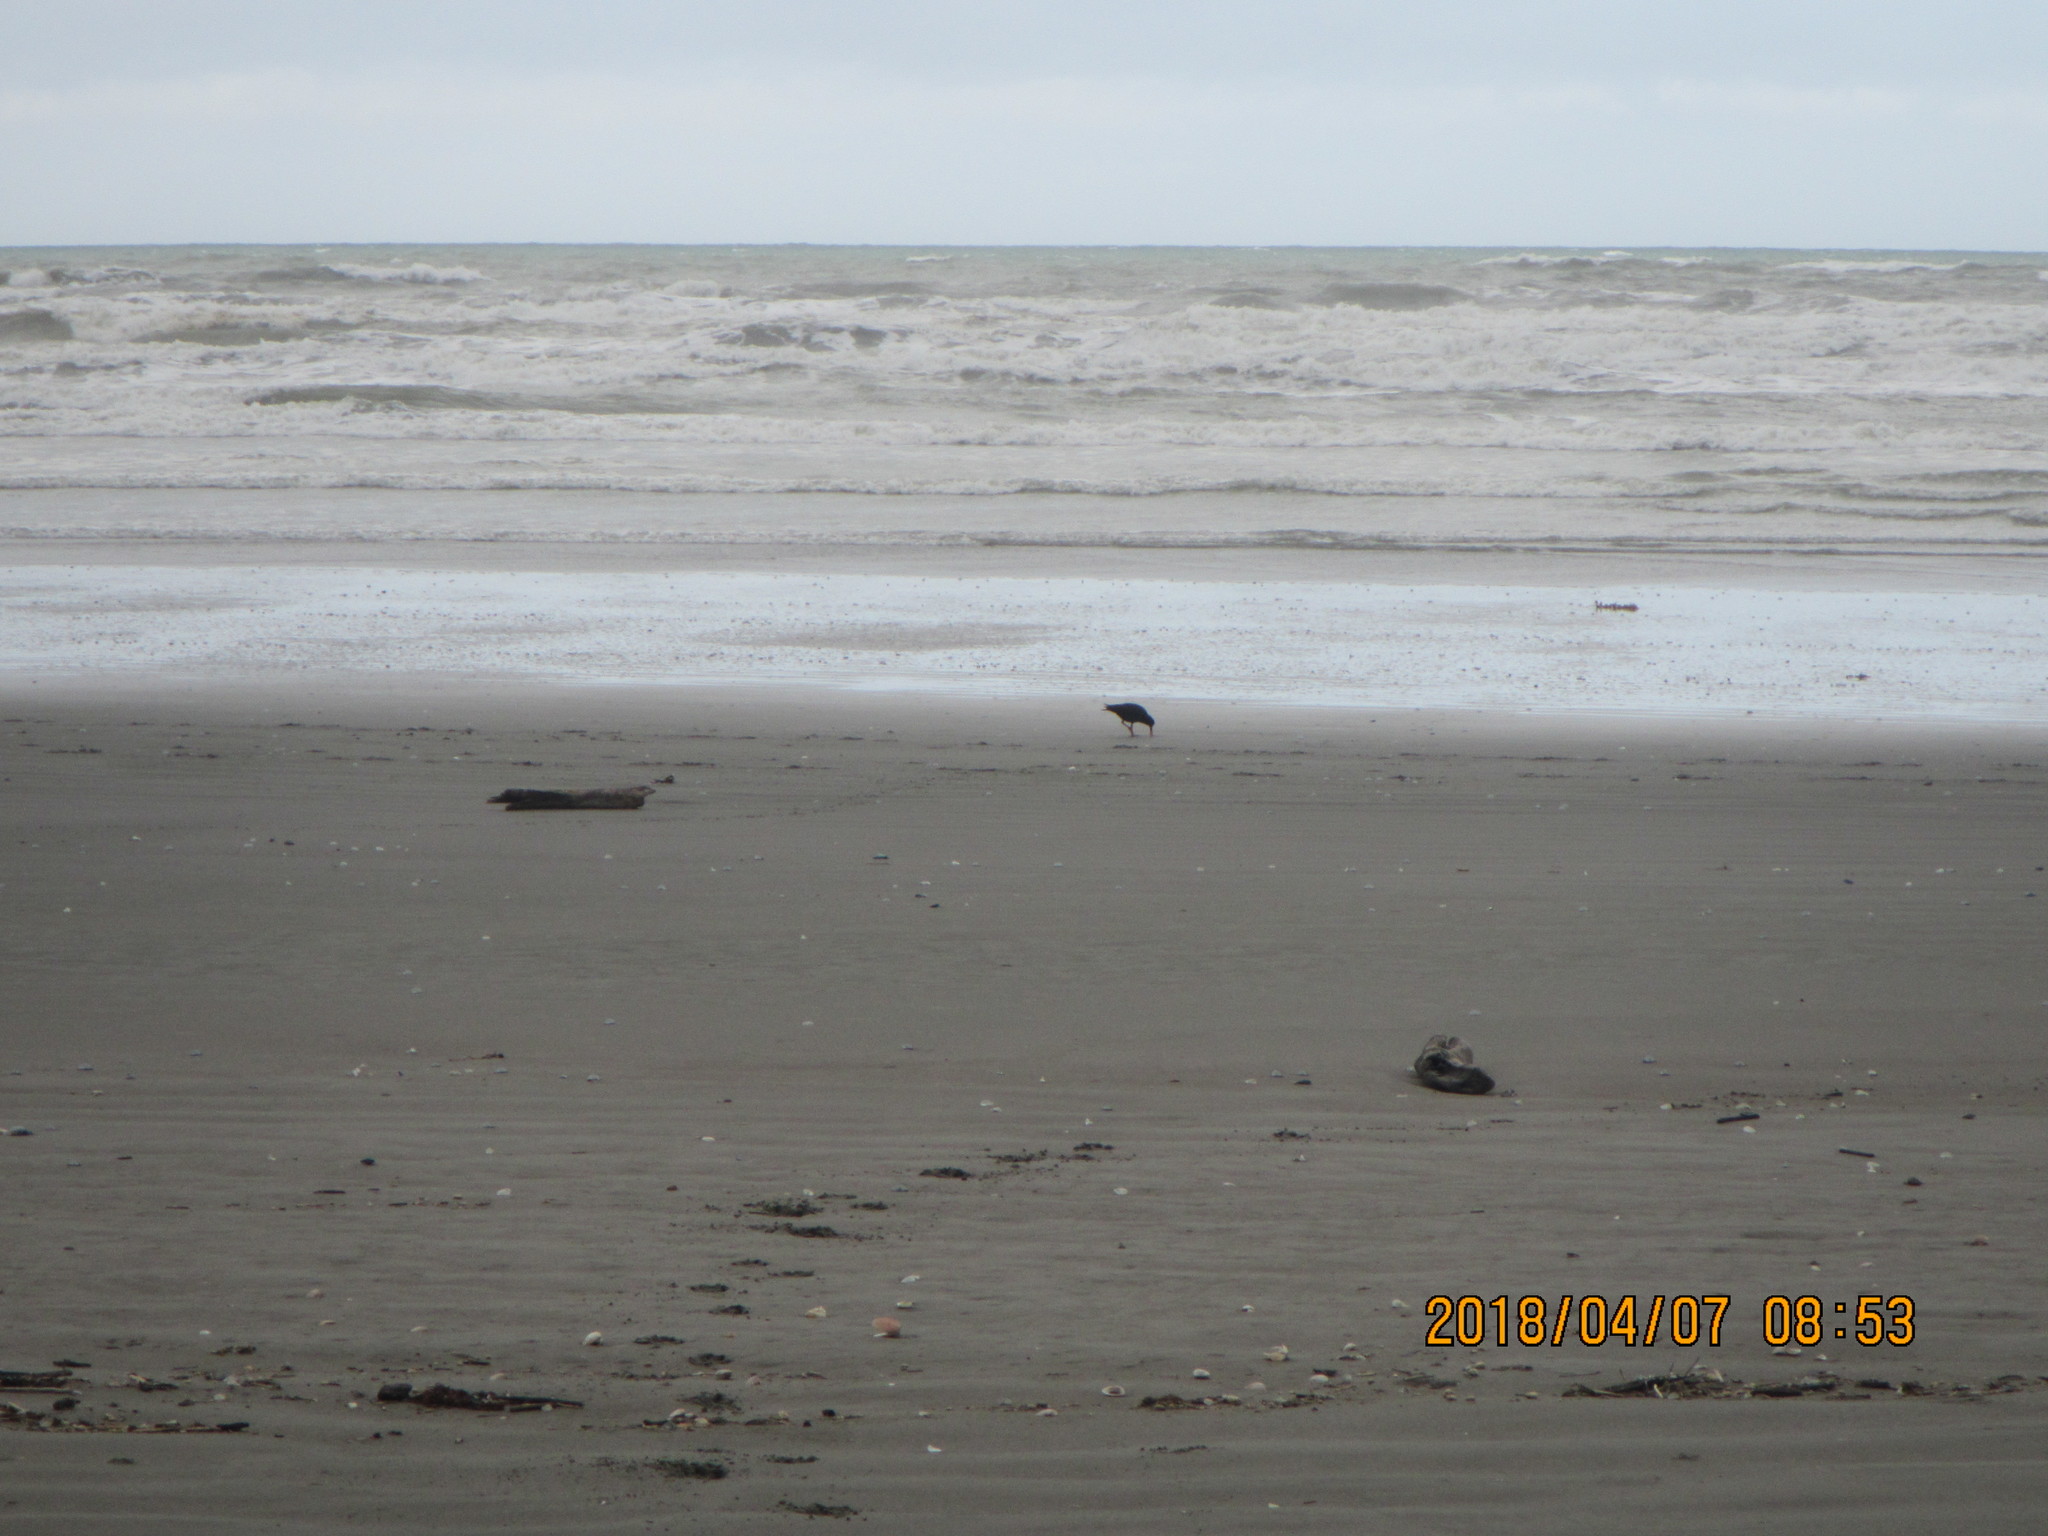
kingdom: Animalia
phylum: Chordata
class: Aves
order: Charadriiformes
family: Haematopodidae
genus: Haematopus
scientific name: Haematopus unicolor
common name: Variable oystercatcher
